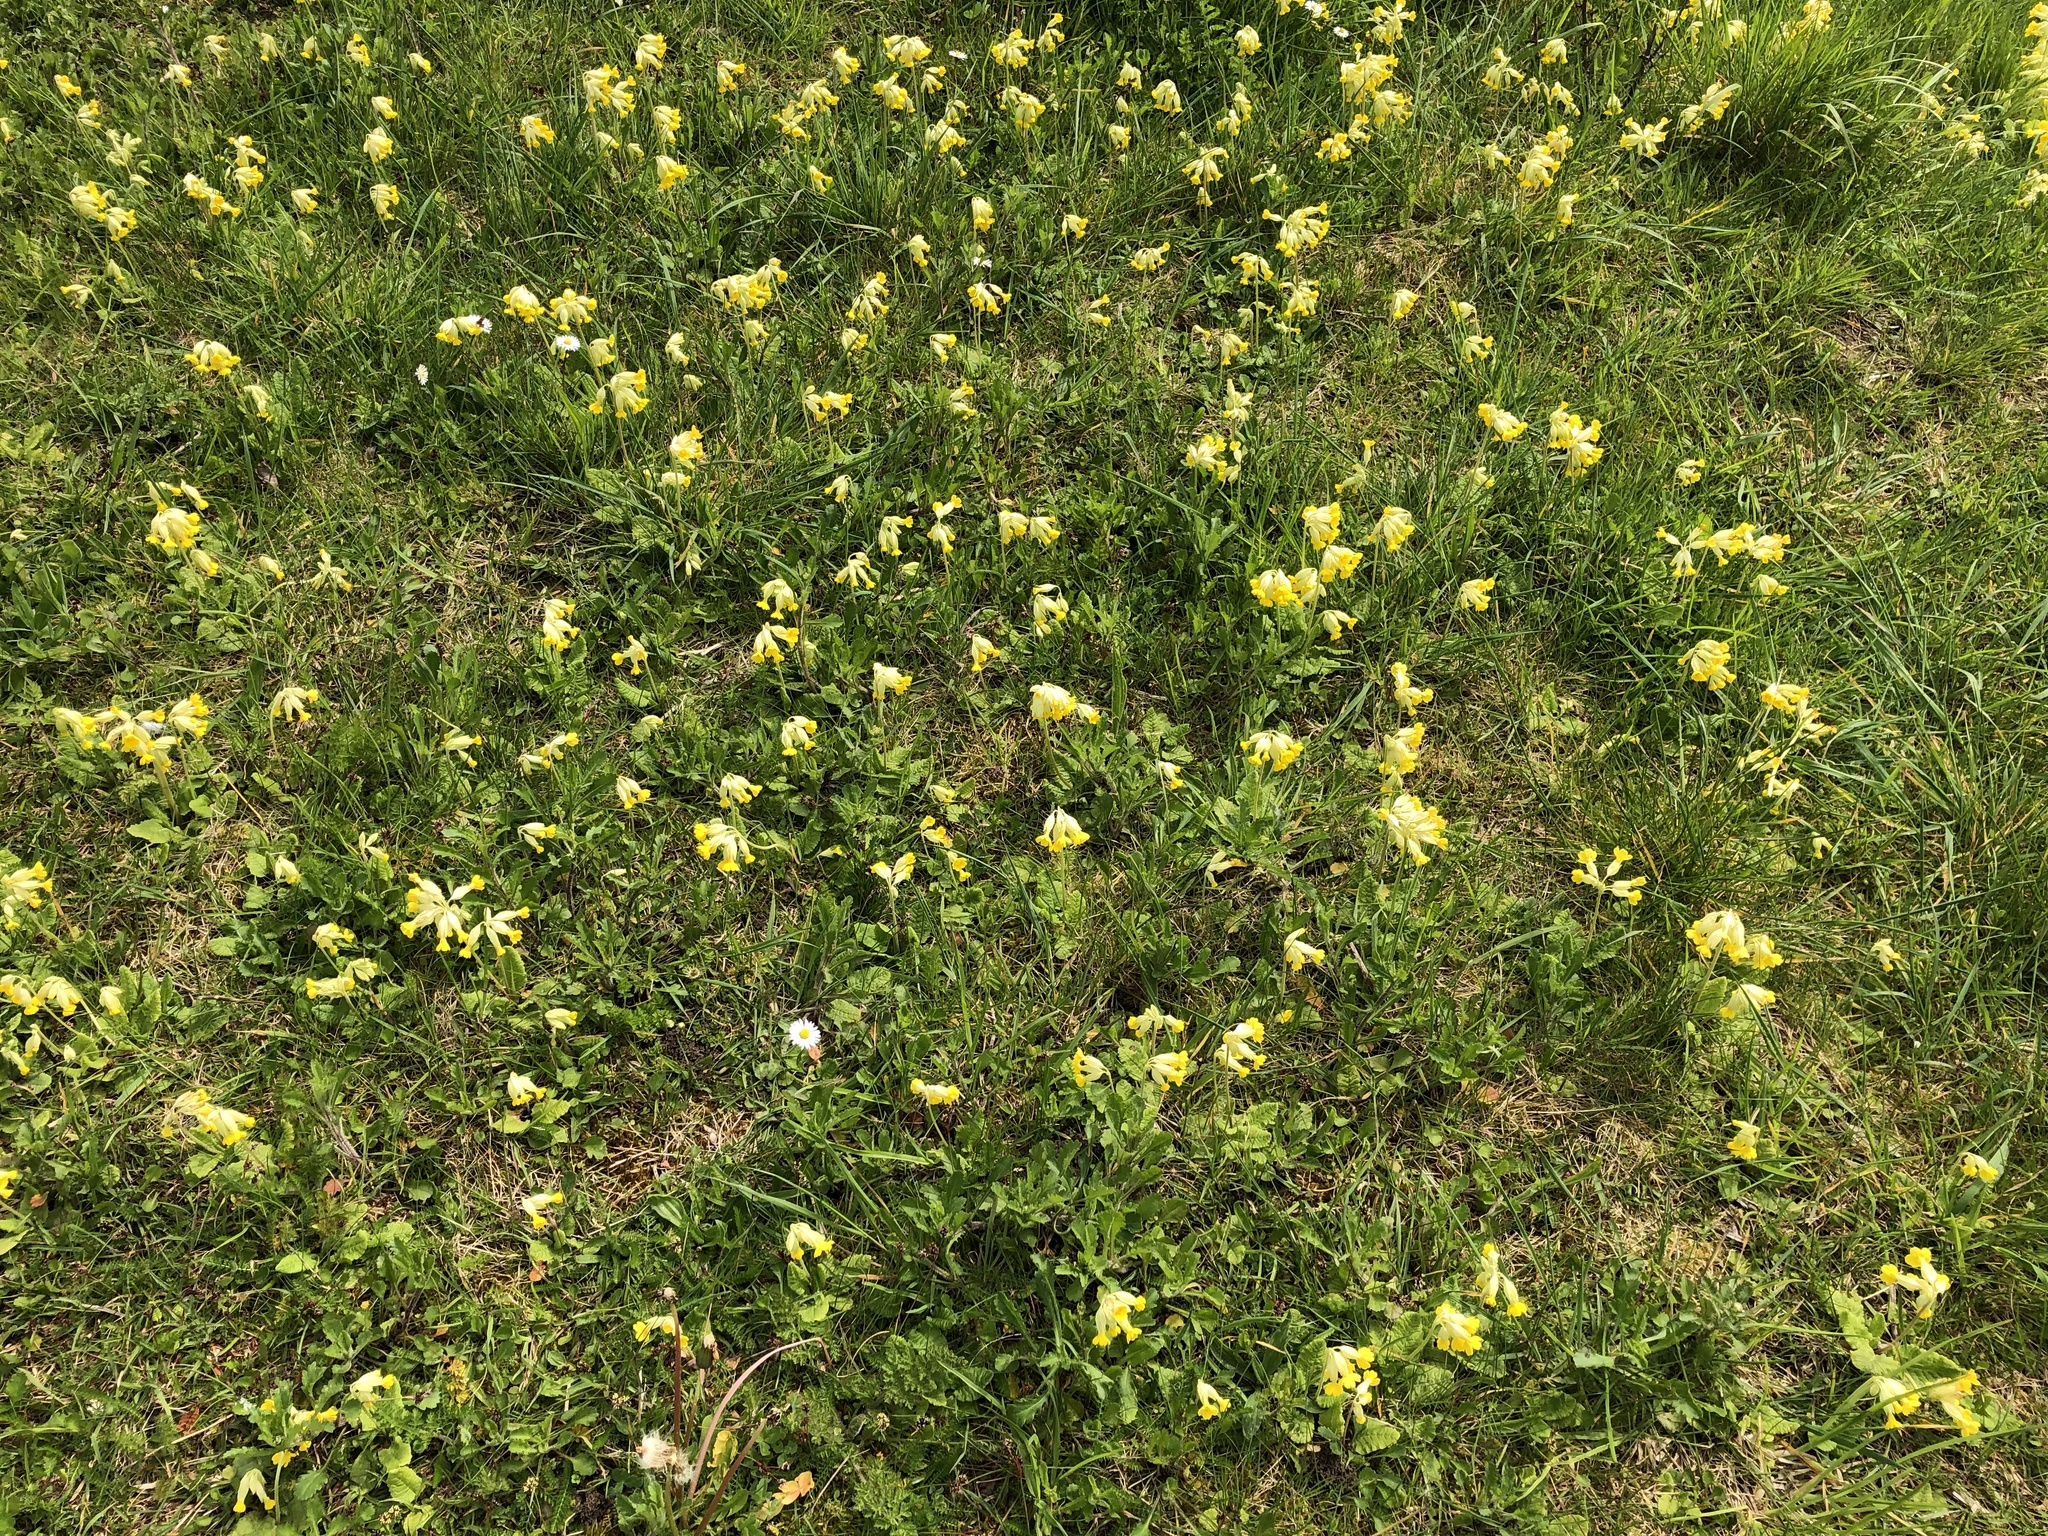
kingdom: Plantae
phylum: Tracheophyta
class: Magnoliopsida
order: Ericales
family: Primulaceae
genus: Primula
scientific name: Primula veris
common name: Cowslip
